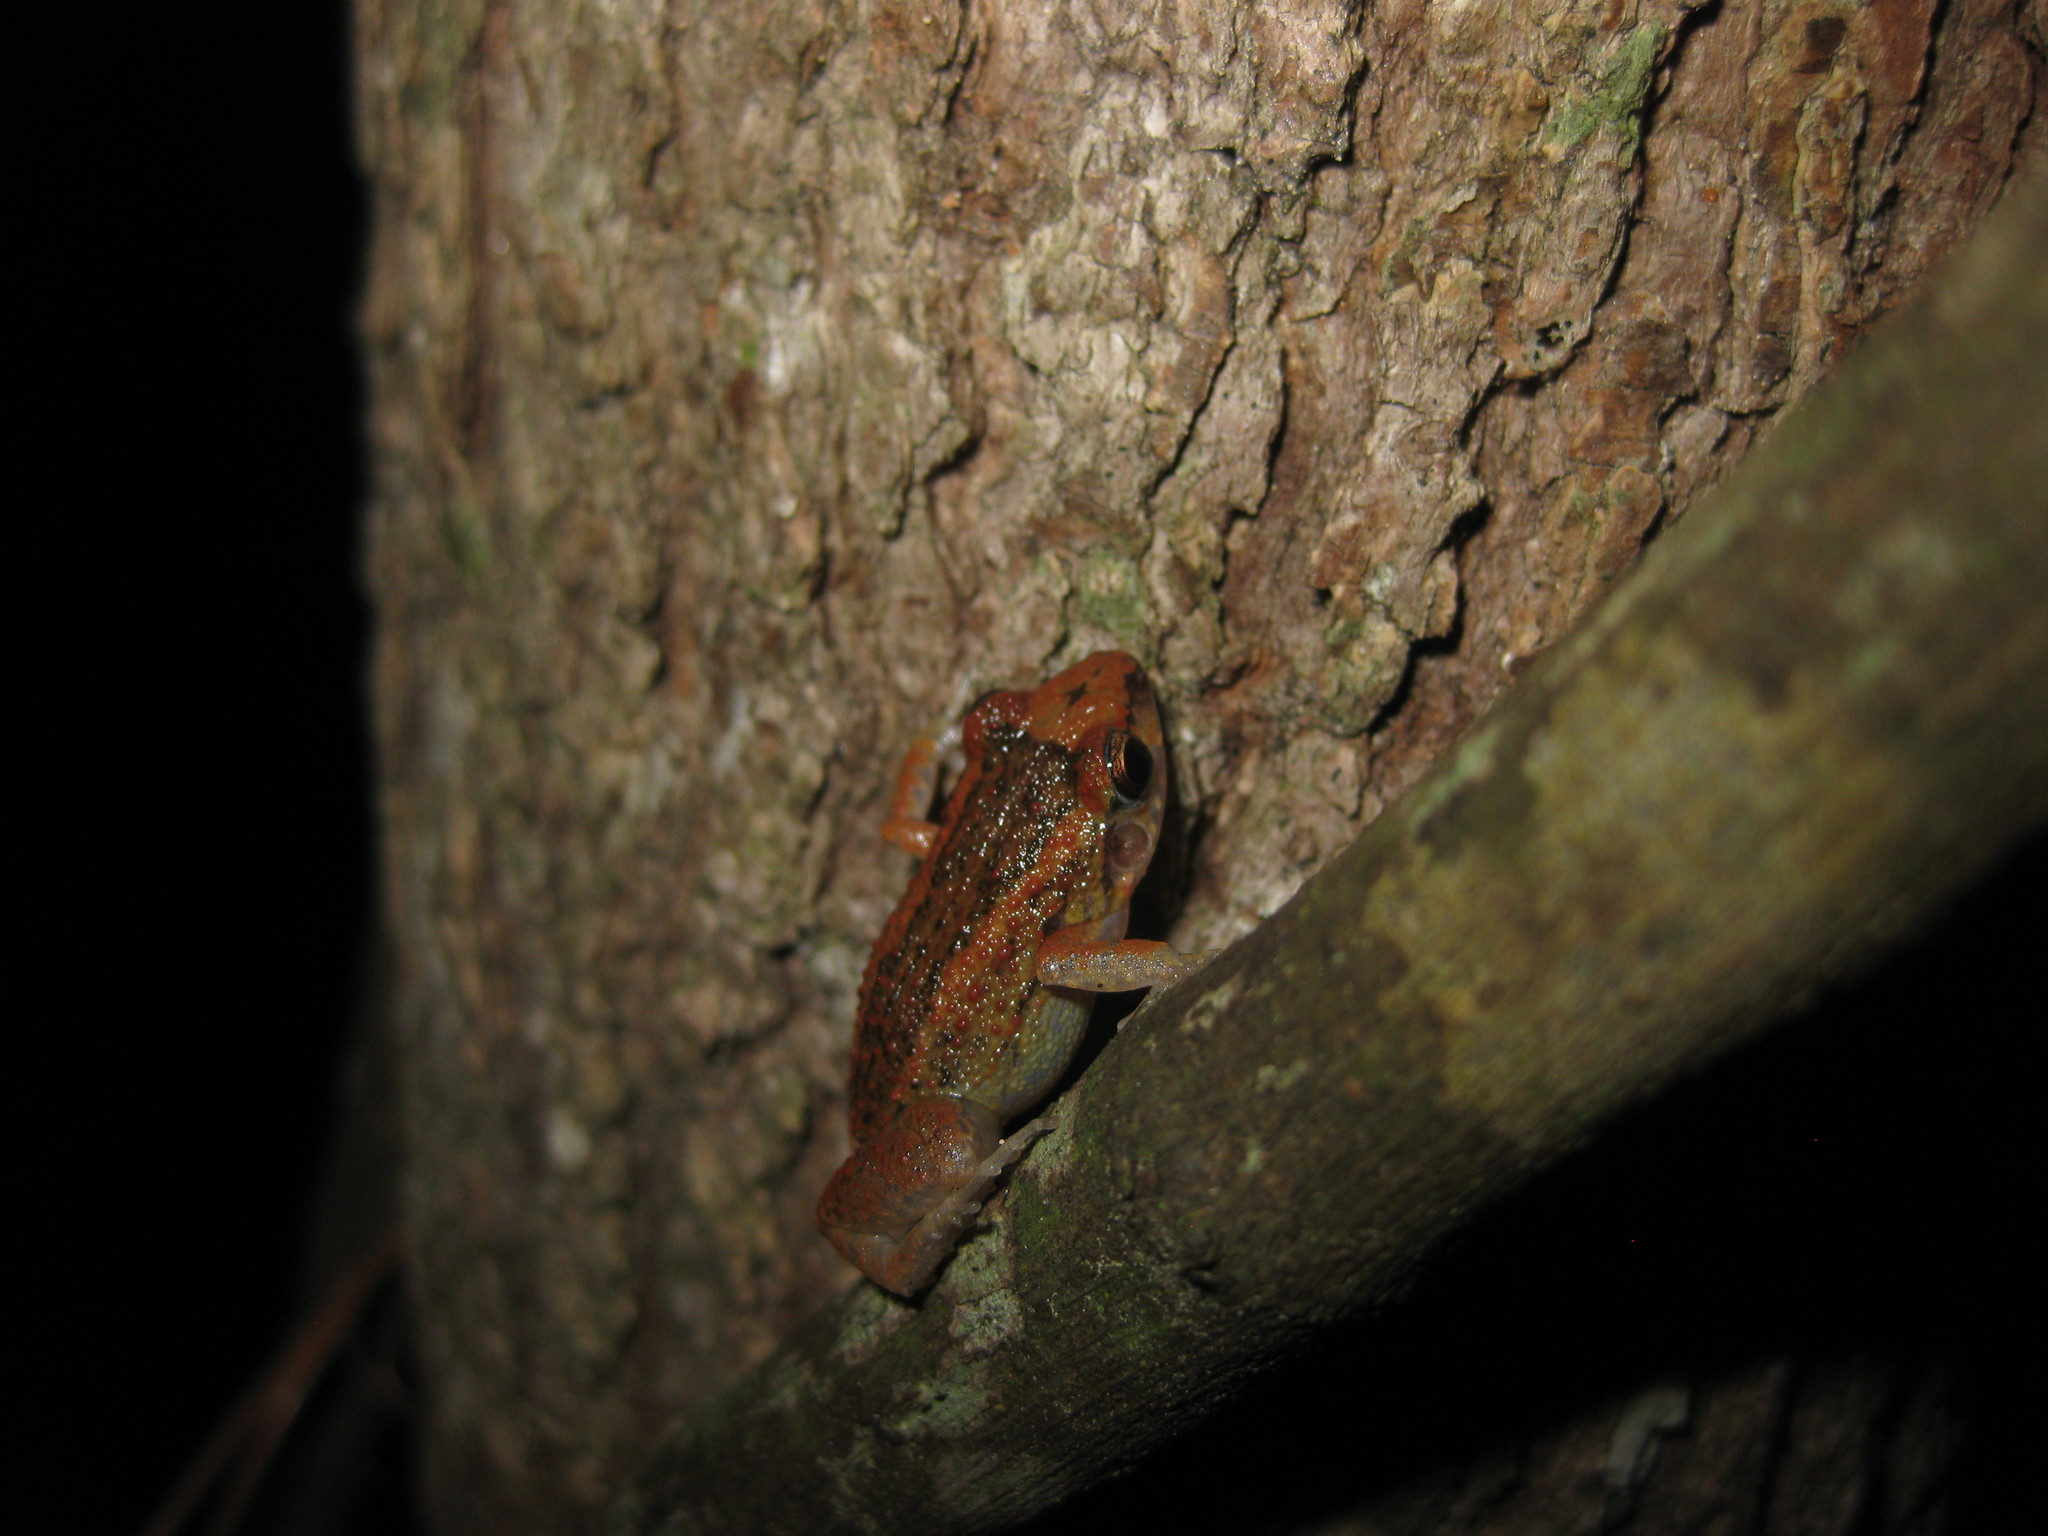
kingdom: Animalia
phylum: Chordata
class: Amphibia
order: Anura
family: Eleutherodactylidae
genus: Eleutherodactylus
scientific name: Eleutherodactylus planirostris
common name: Greenhouse frog
